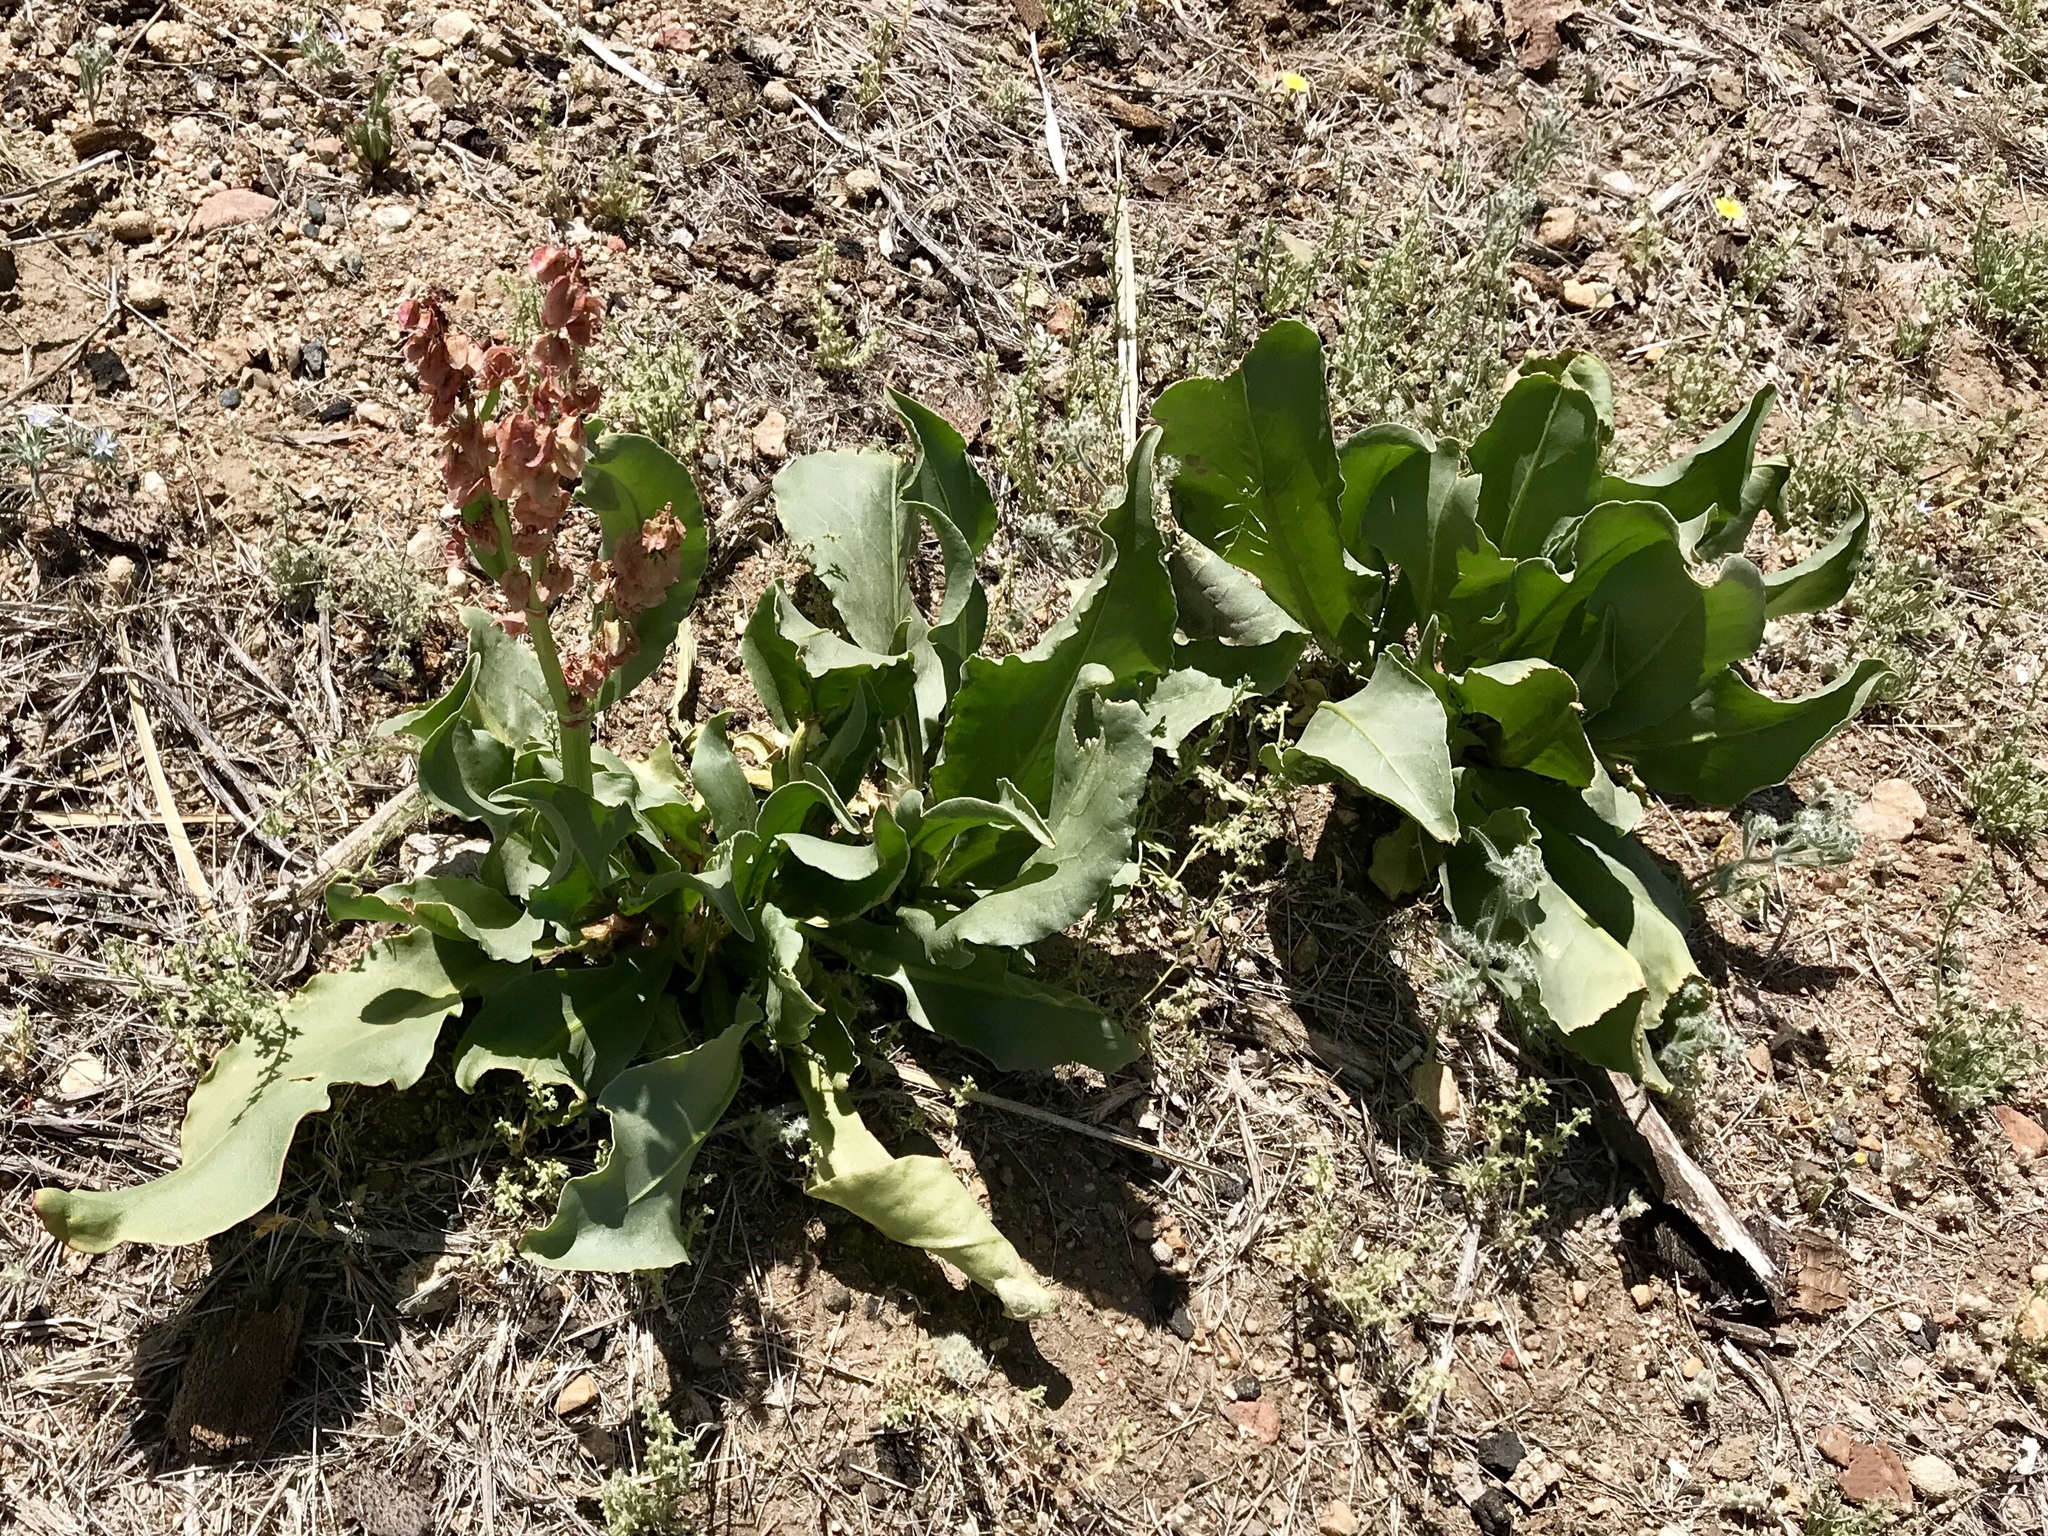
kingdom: Plantae
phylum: Tracheophyta
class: Magnoliopsida
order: Caryophyllales
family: Polygonaceae
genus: Rumex
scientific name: Rumex hymenosepalus
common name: Ganagra
